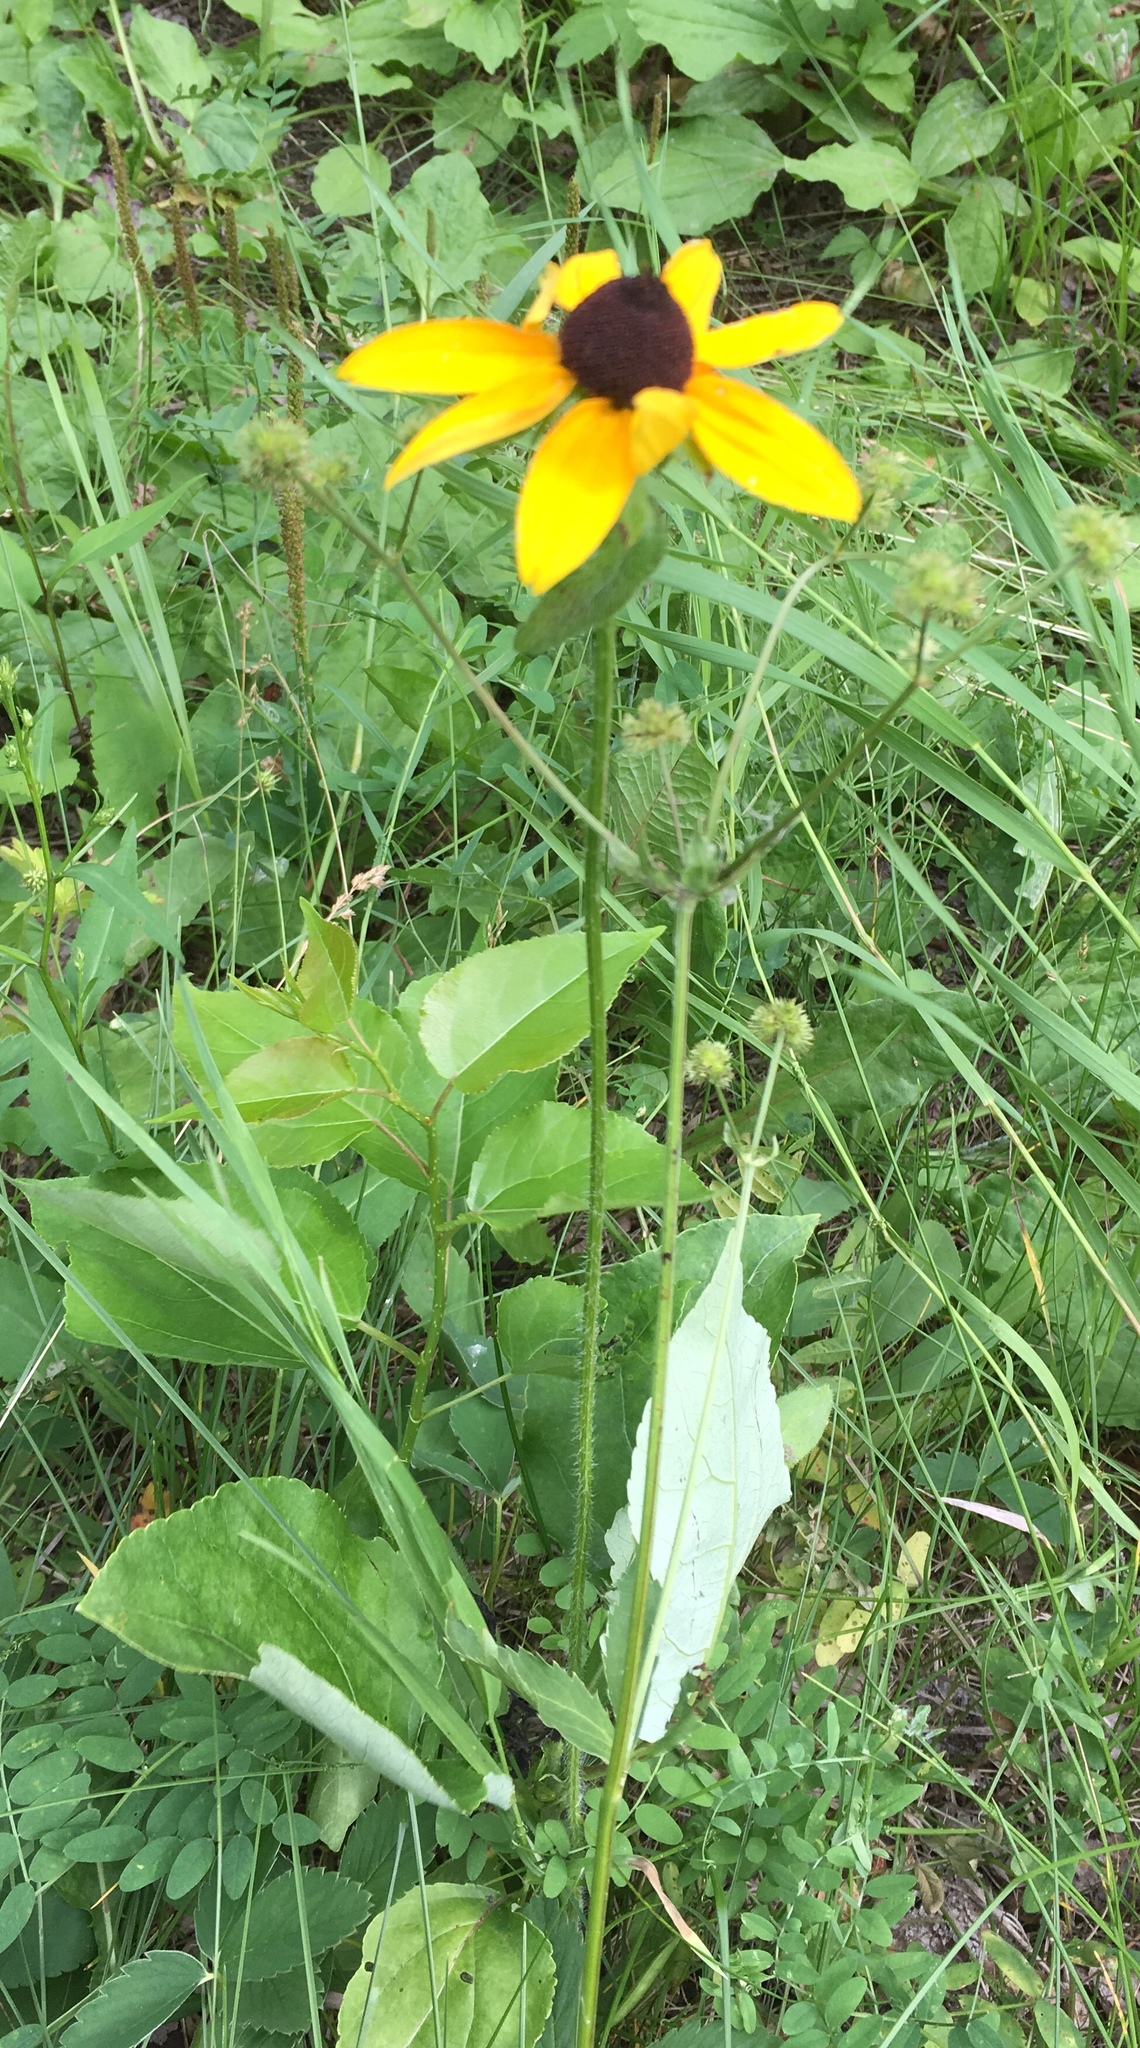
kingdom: Plantae
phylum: Tracheophyta
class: Magnoliopsida
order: Asterales
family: Asteraceae
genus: Rudbeckia
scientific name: Rudbeckia hirta
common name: Black-eyed-susan
